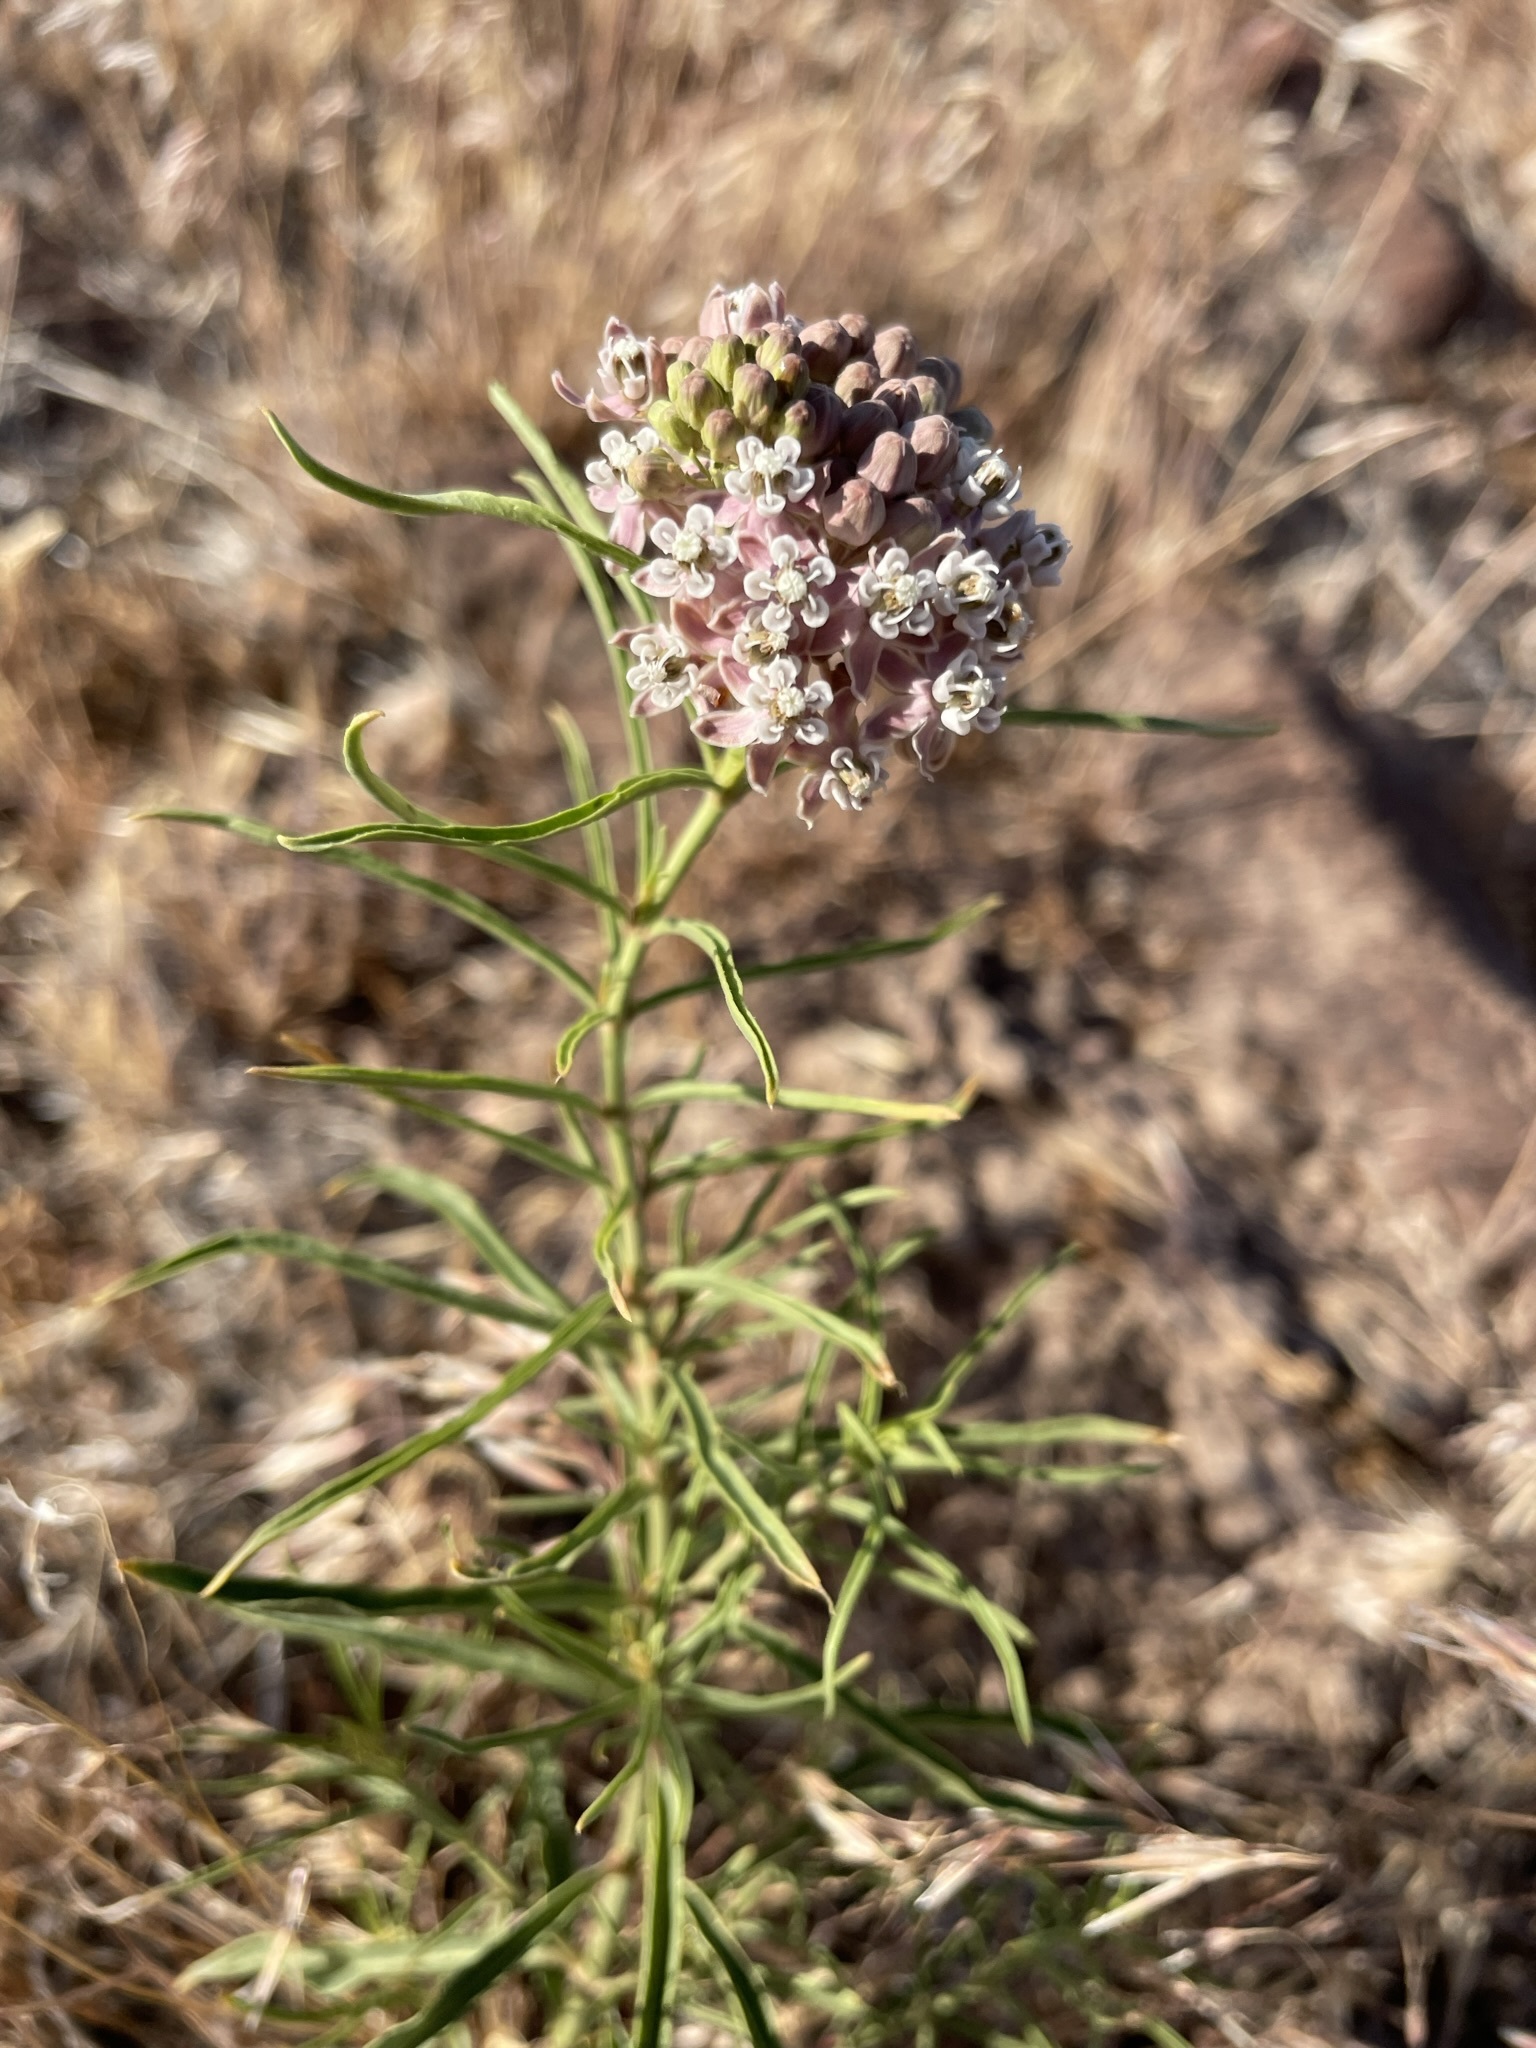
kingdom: Plantae
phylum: Tracheophyta
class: Magnoliopsida
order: Gentianales
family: Apocynaceae
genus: Asclepias
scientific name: Asclepias fascicularis
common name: Mexican milkweed
